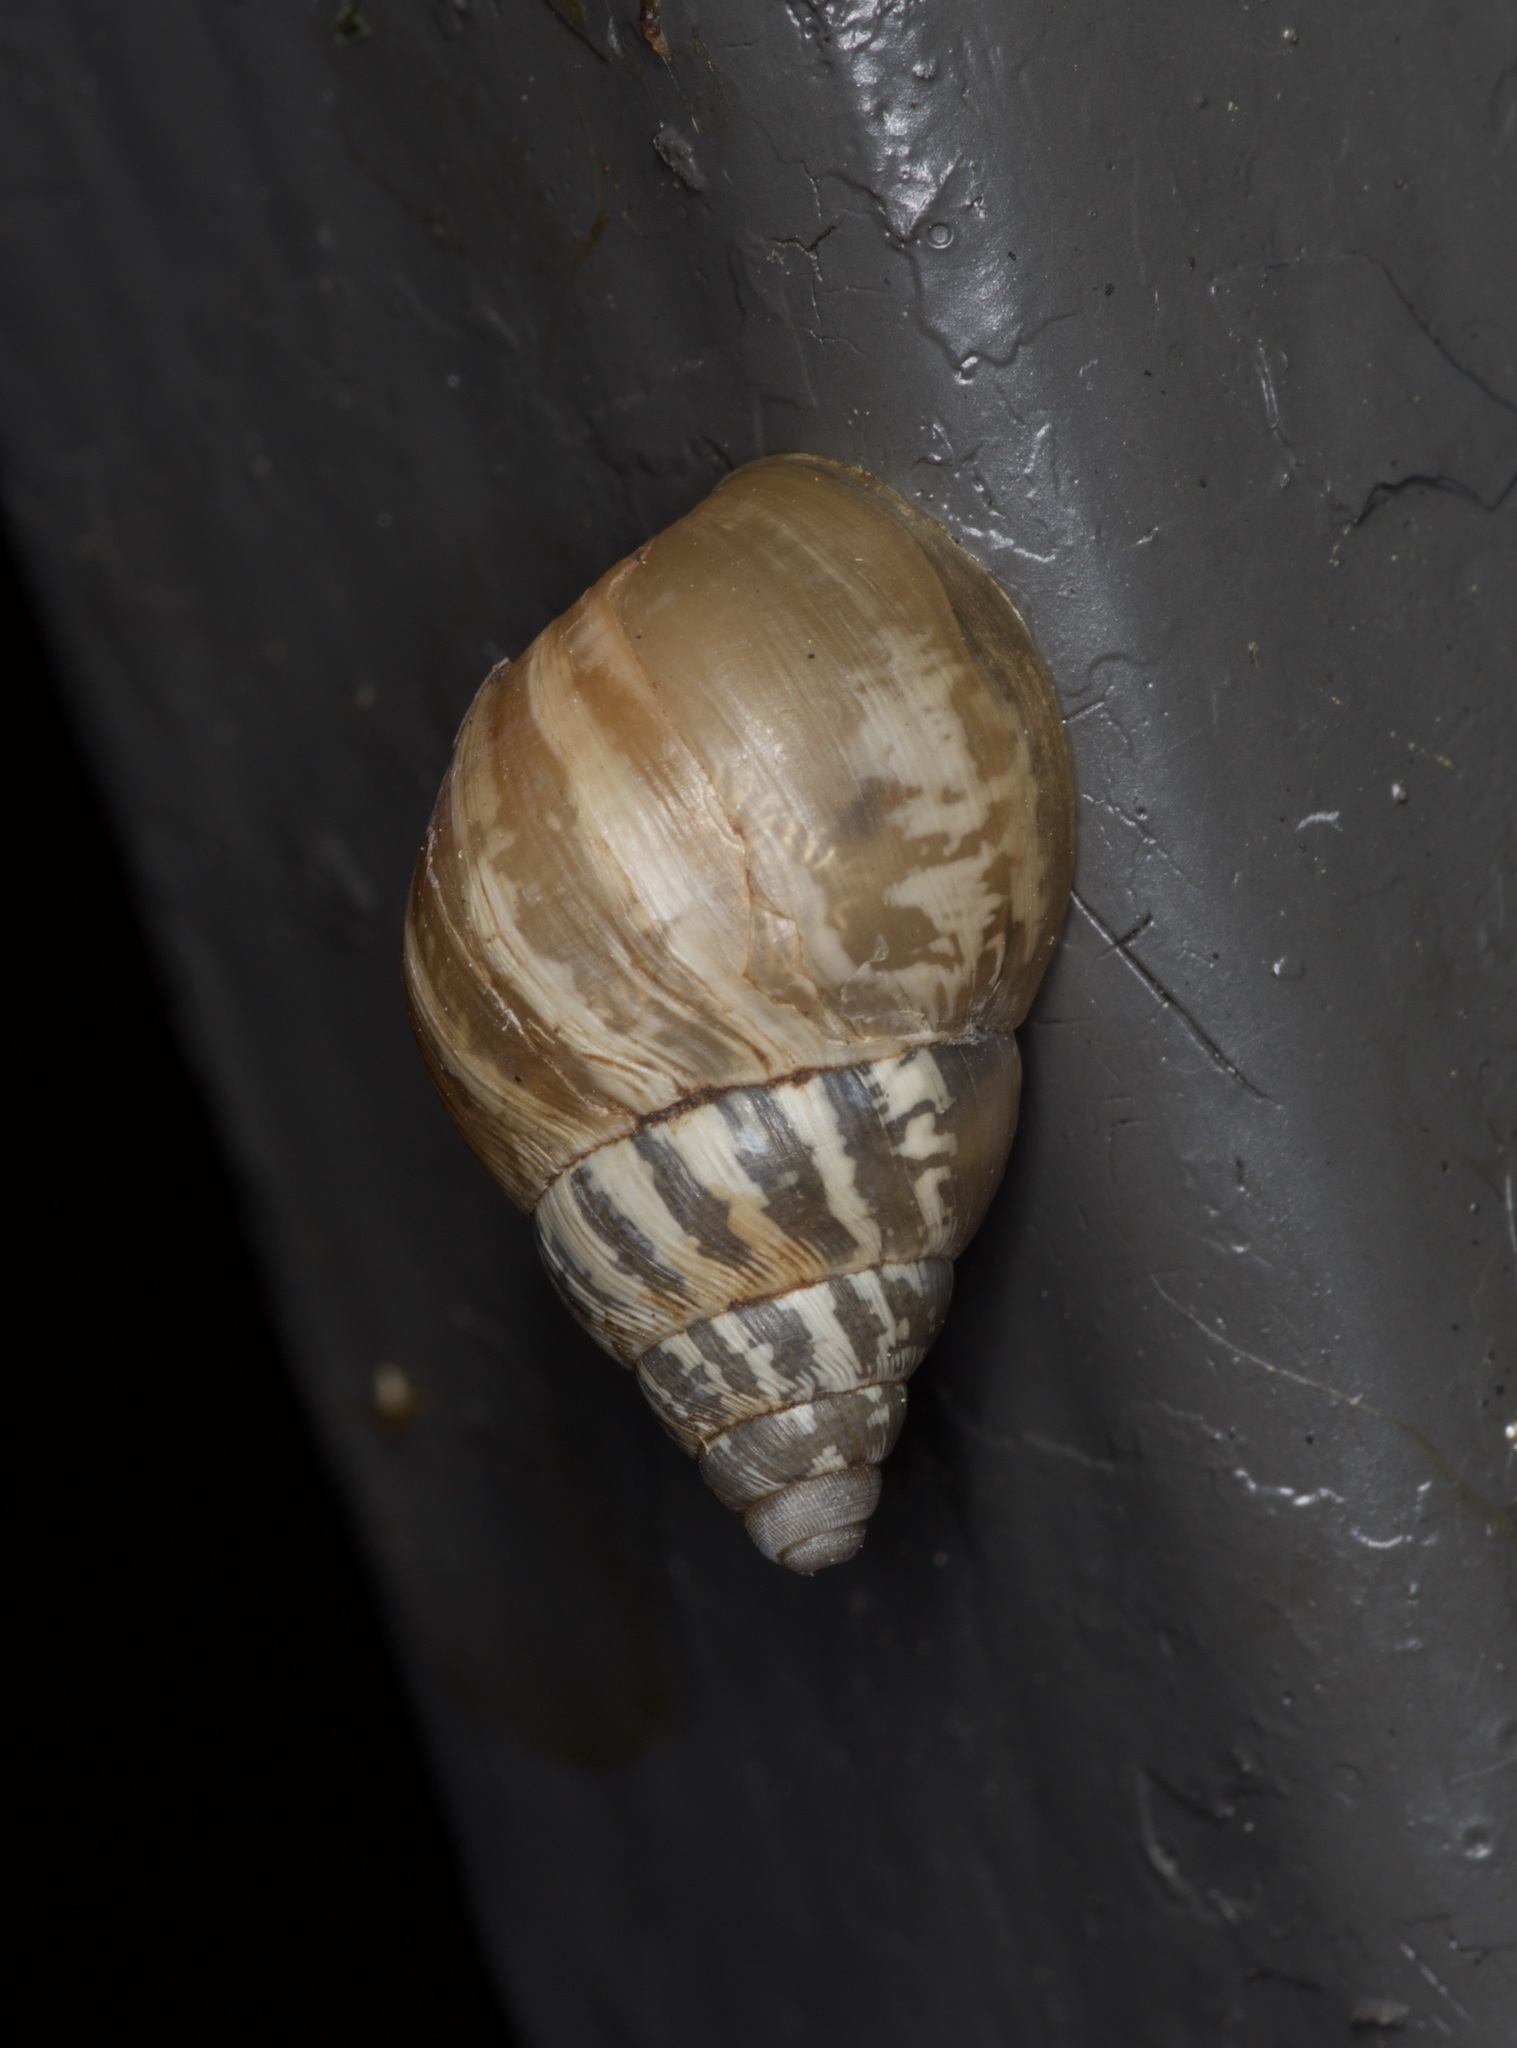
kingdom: Animalia
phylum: Mollusca
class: Gastropoda
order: Stylommatophora
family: Bulimulidae
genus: Rabdotus
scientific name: Rabdotus dealbatus
